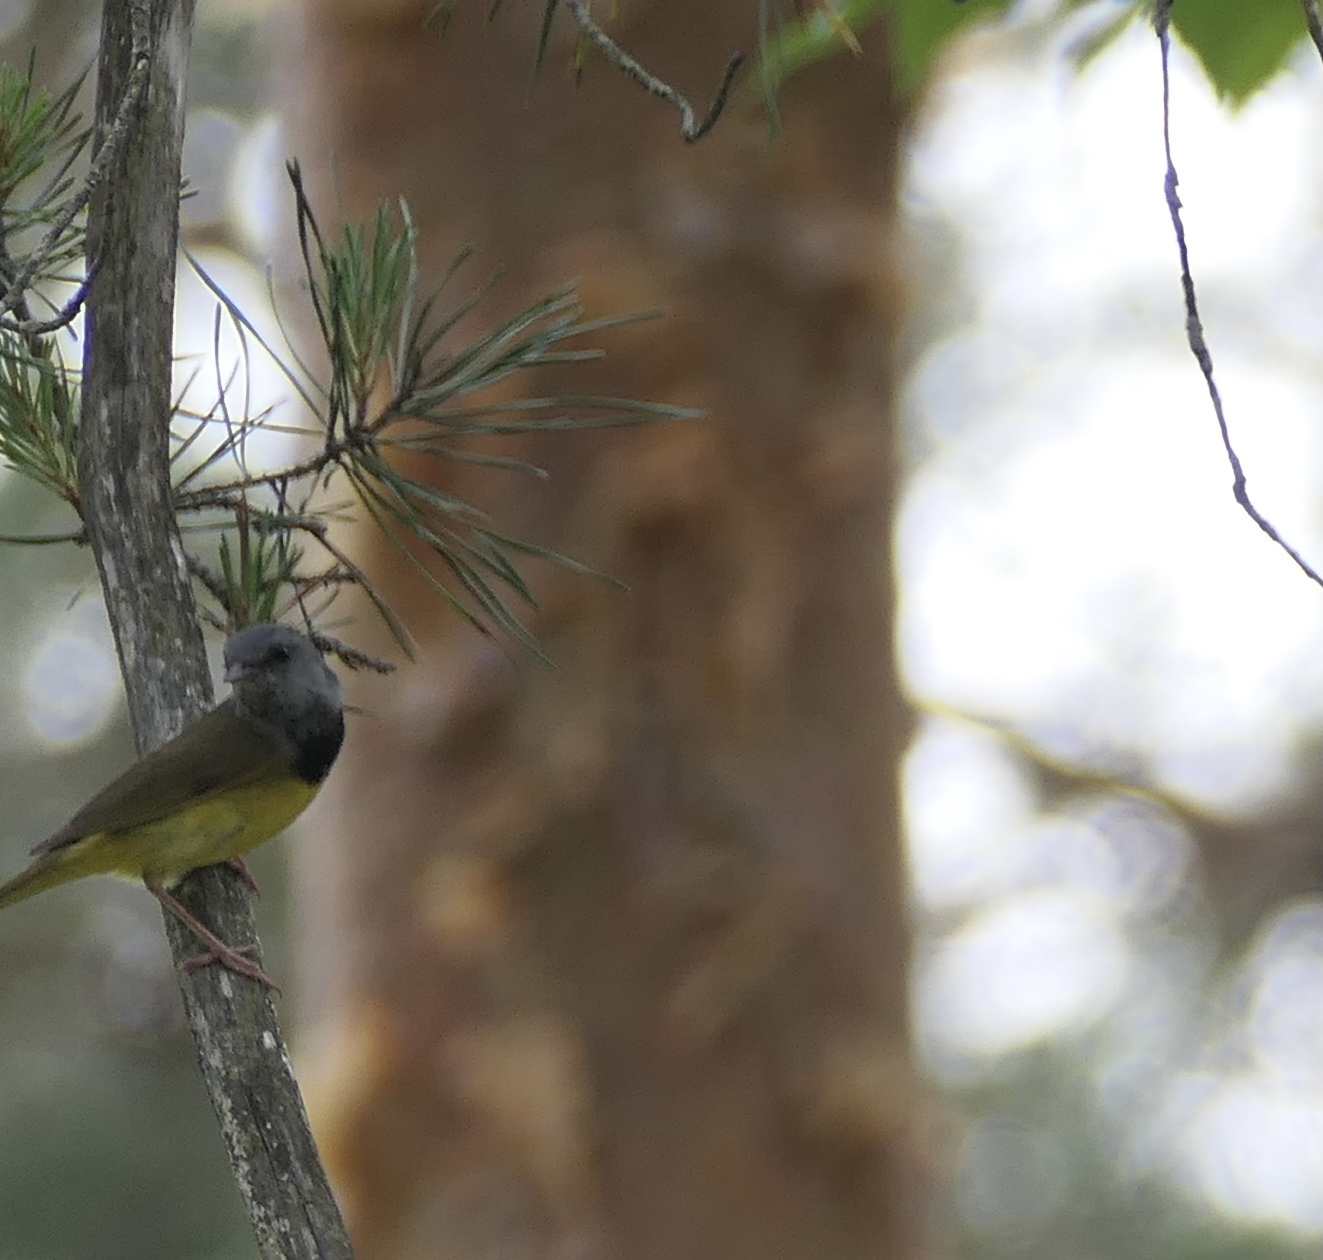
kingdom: Animalia
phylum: Chordata
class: Aves
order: Passeriformes
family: Parulidae
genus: Geothlypis
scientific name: Geothlypis philadelphia
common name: Mourning warbler
